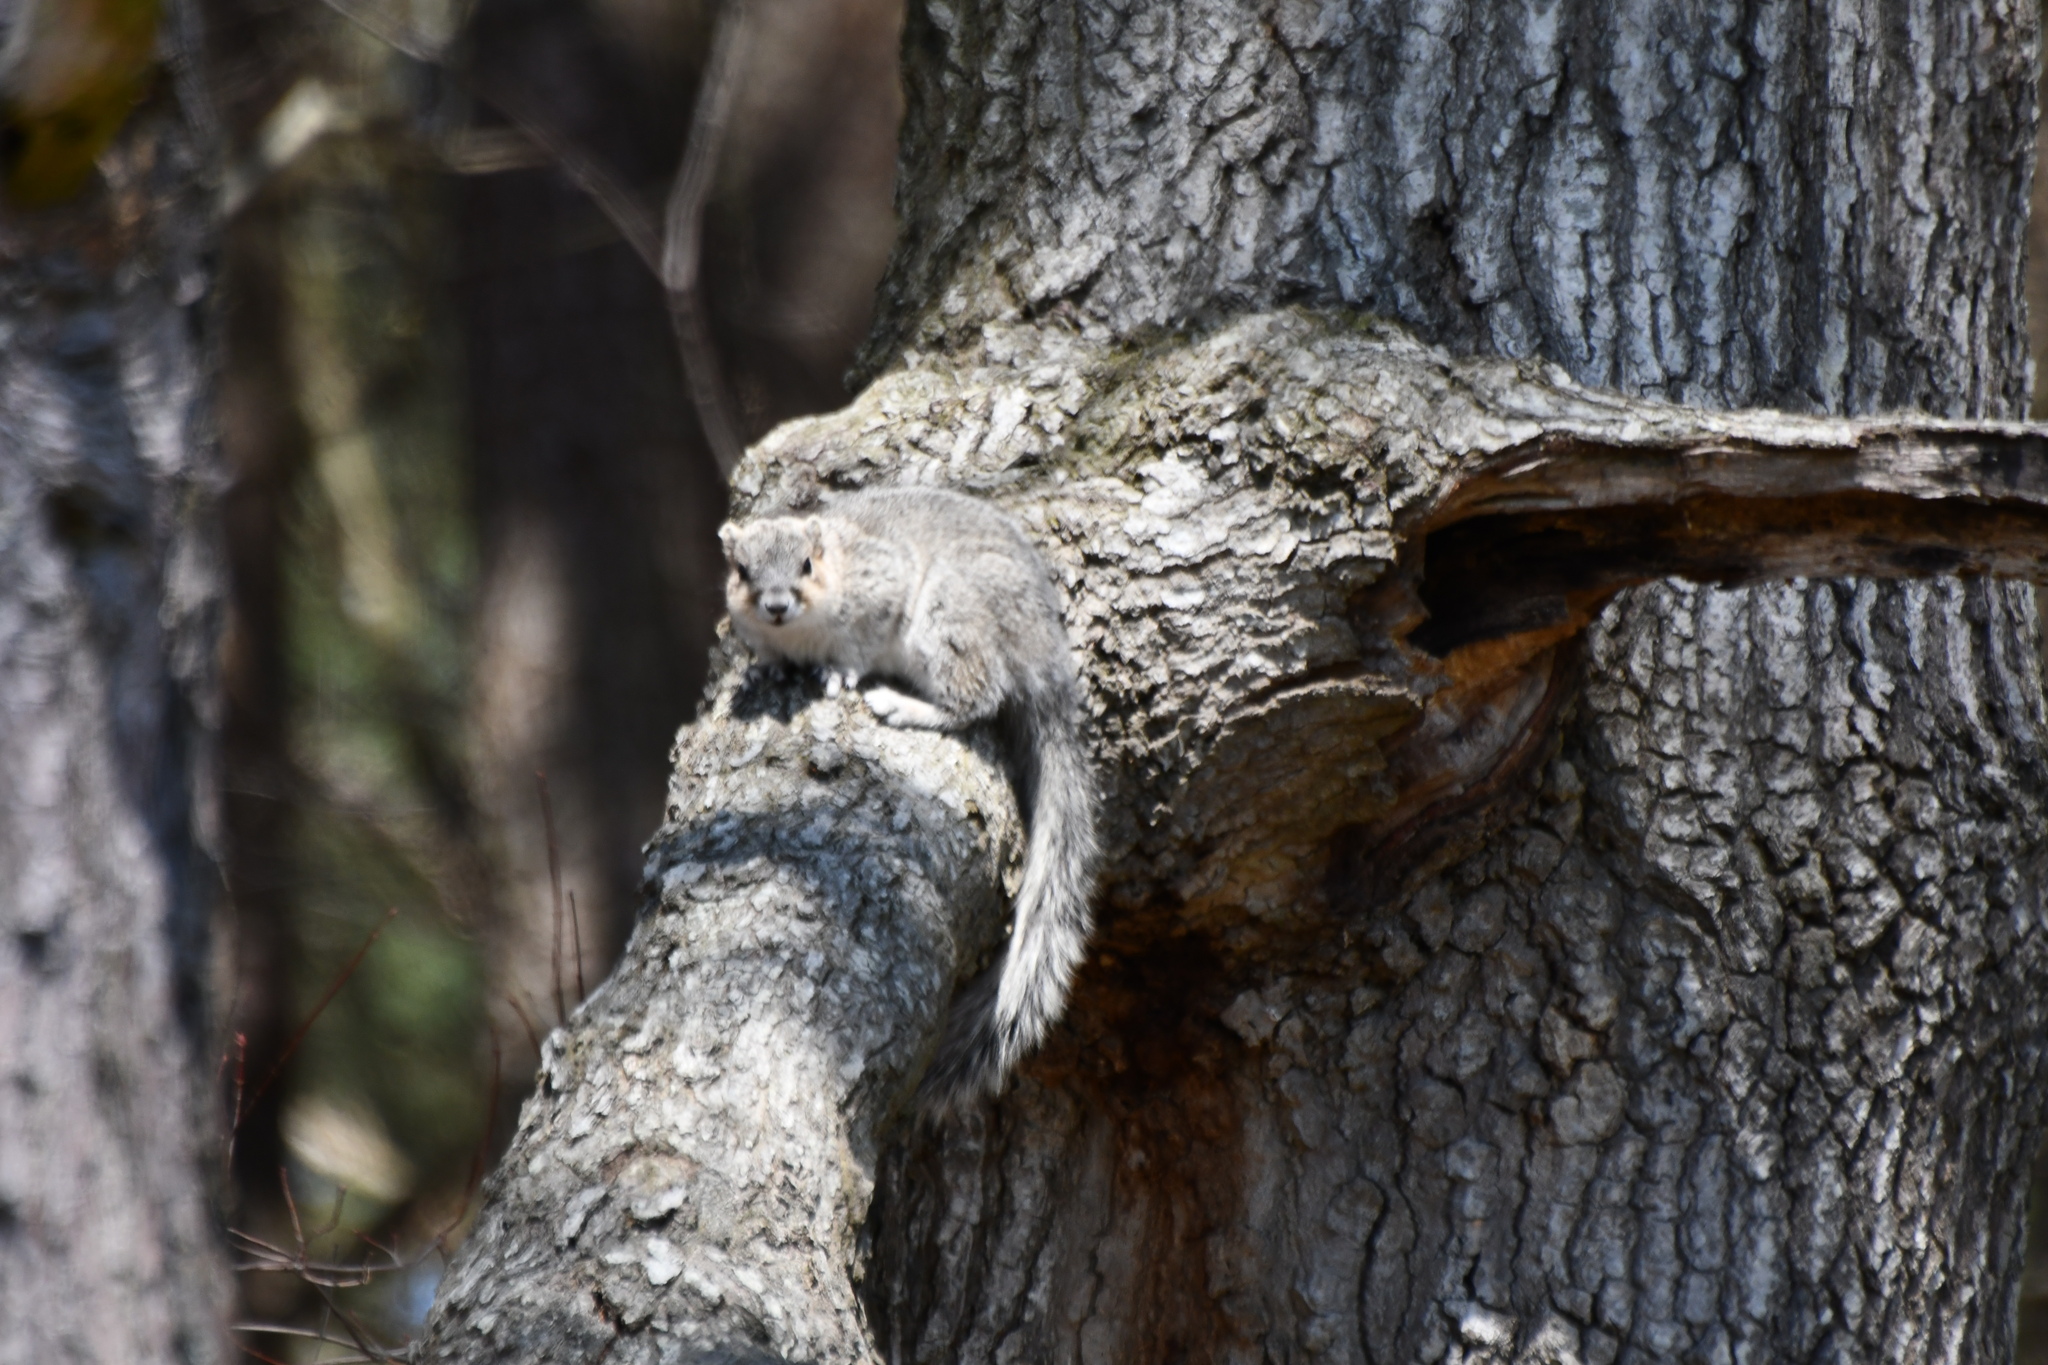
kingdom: Animalia
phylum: Chordata
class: Mammalia
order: Rodentia
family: Sciuridae
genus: Sciurus
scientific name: Sciurus niger
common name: Fox squirrel
